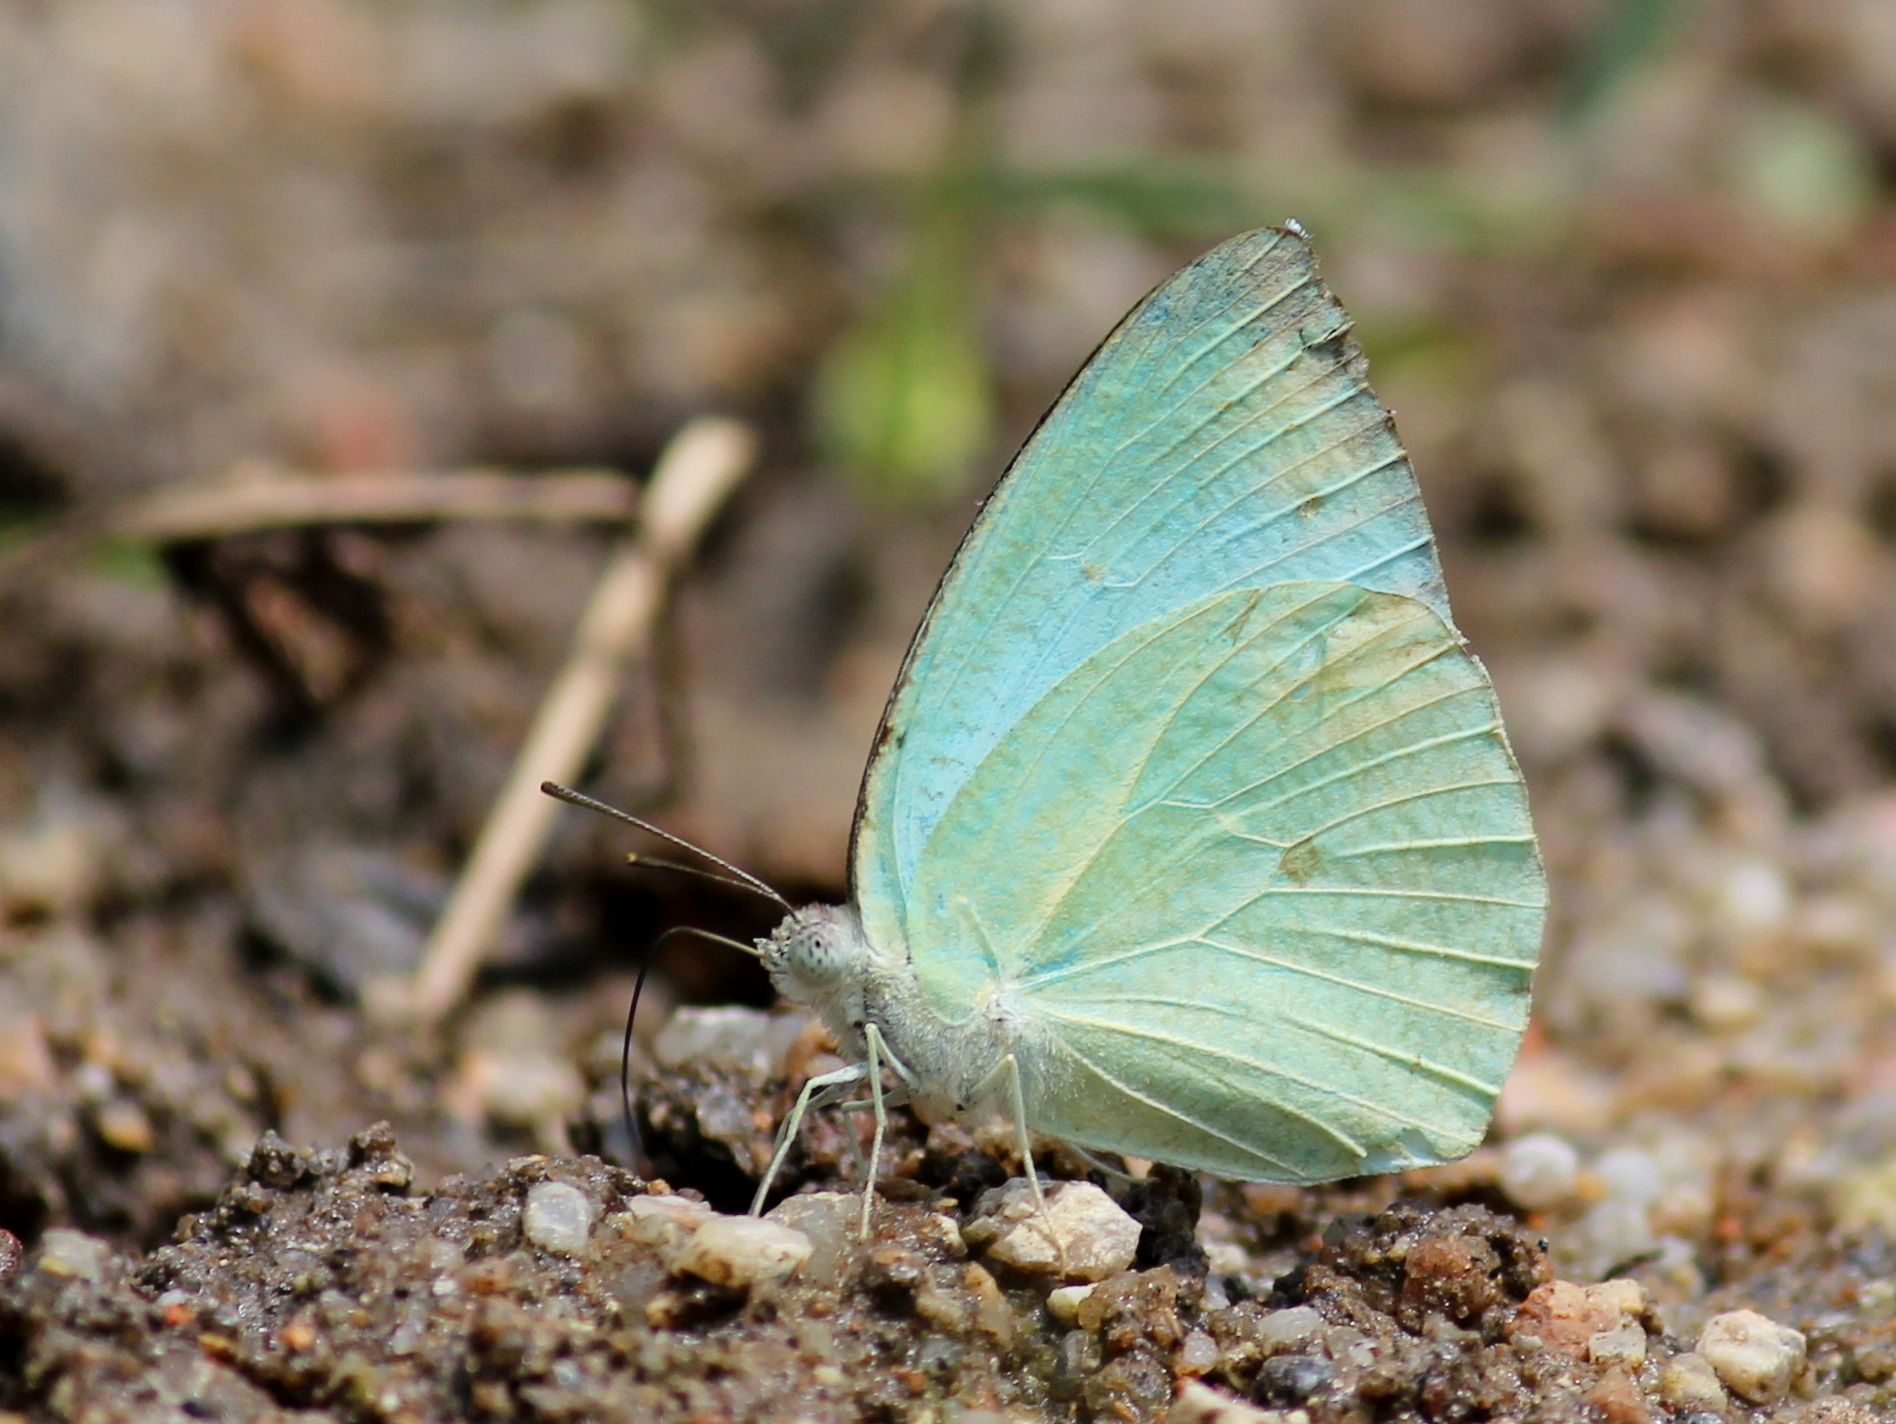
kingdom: Animalia
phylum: Arthropoda
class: Insecta
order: Lepidoptera
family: Pieridae
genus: Catopsilia
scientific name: Catopsilia pyranthe
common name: Mottled emigrant
